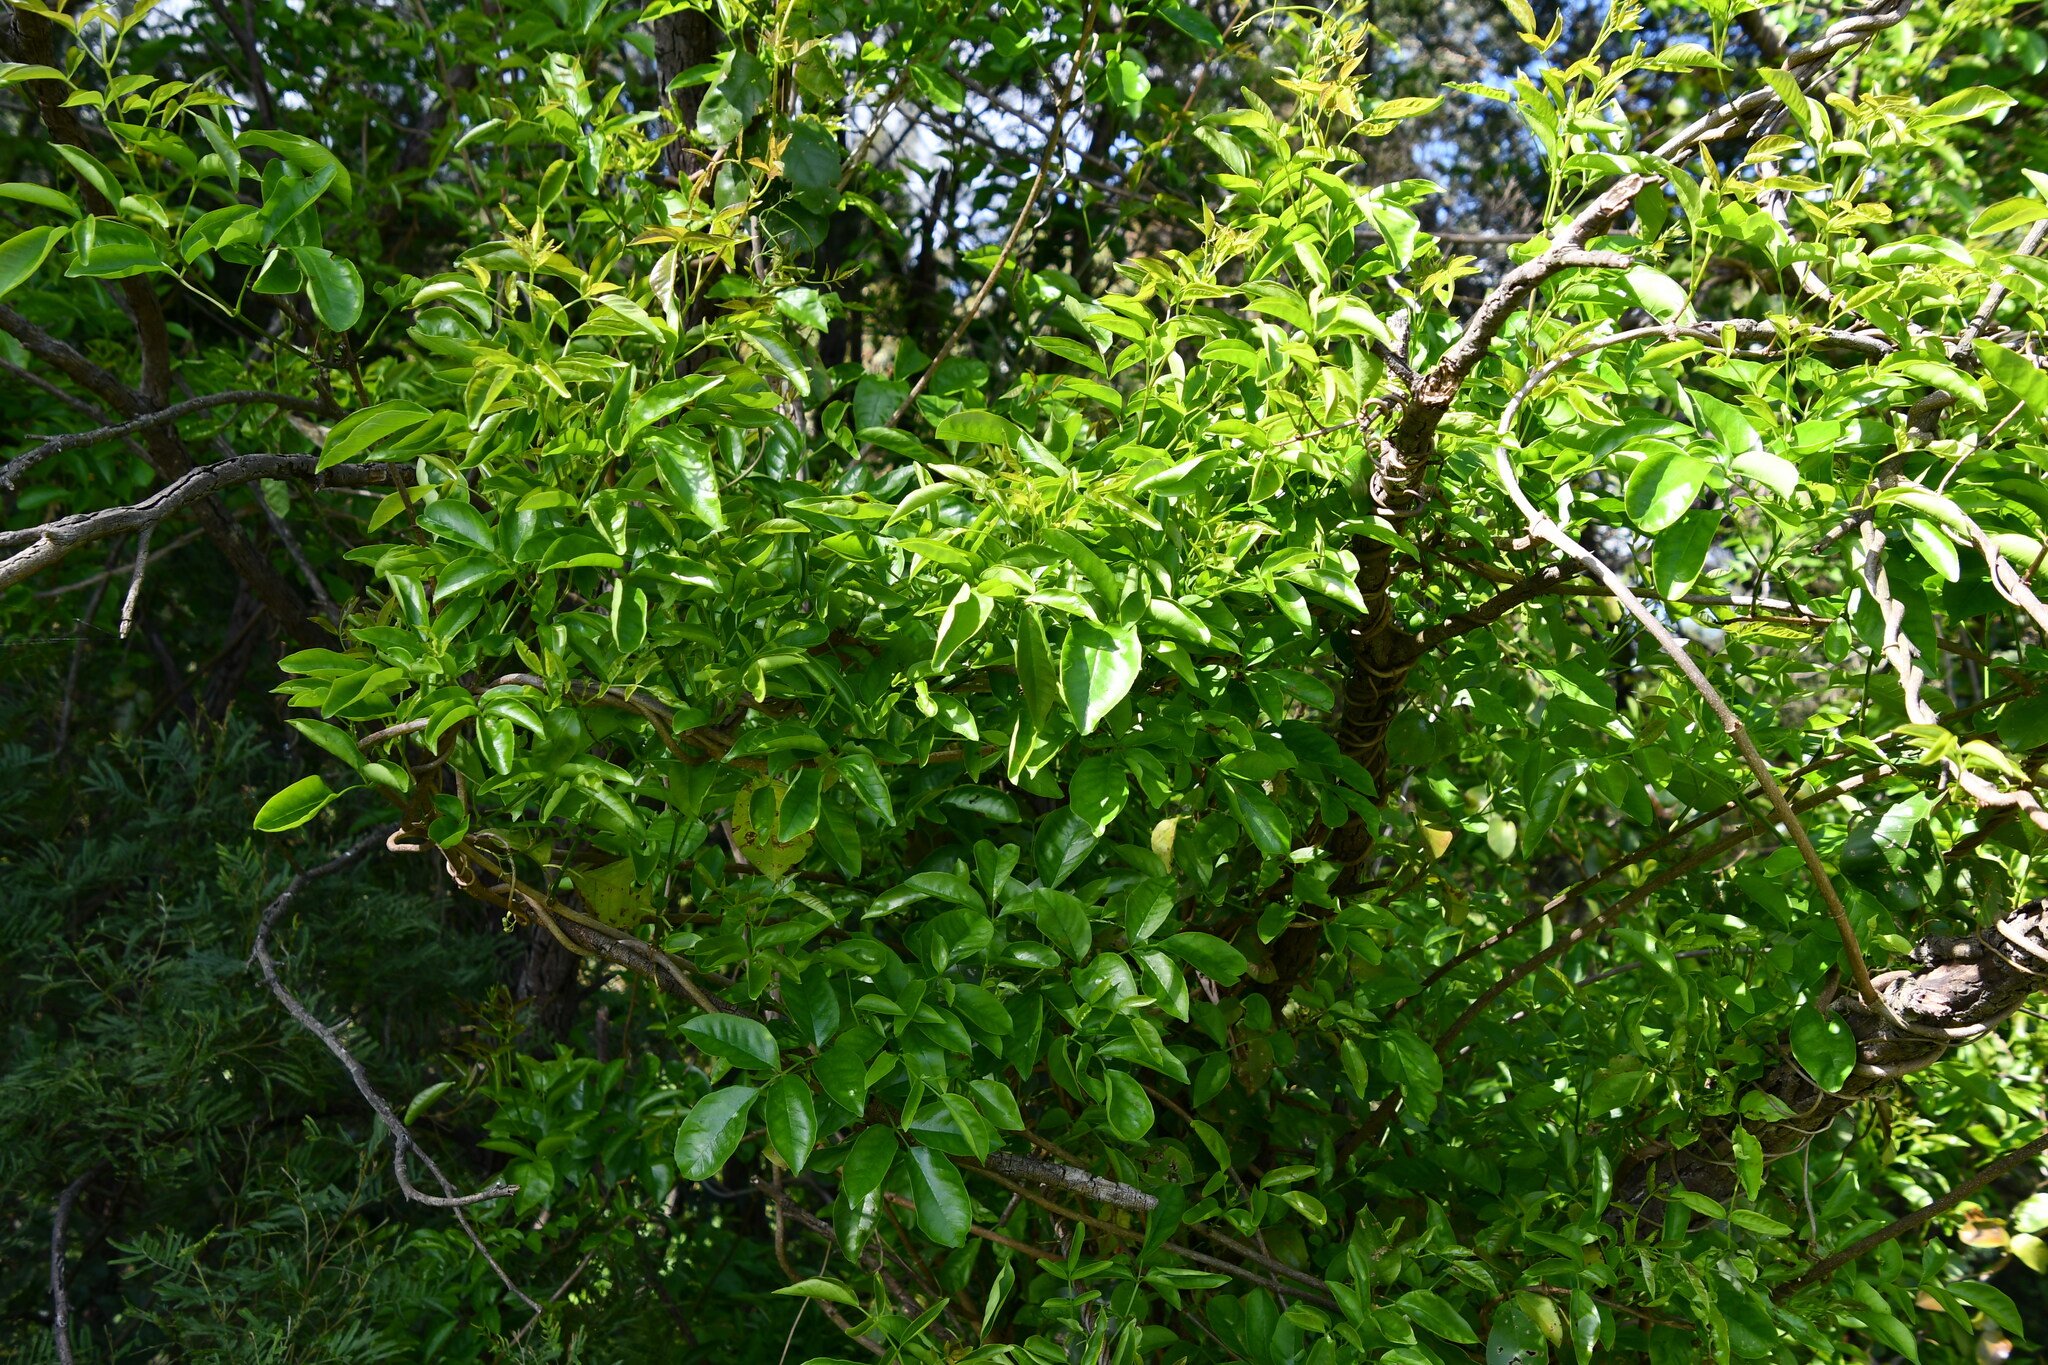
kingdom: Plantae
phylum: Tracheophyta
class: Magnoliopsida
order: Lamiales
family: Bignoniaceae
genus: Pandorea
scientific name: Pandorea pandorana
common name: Wonga-wonga-vine
